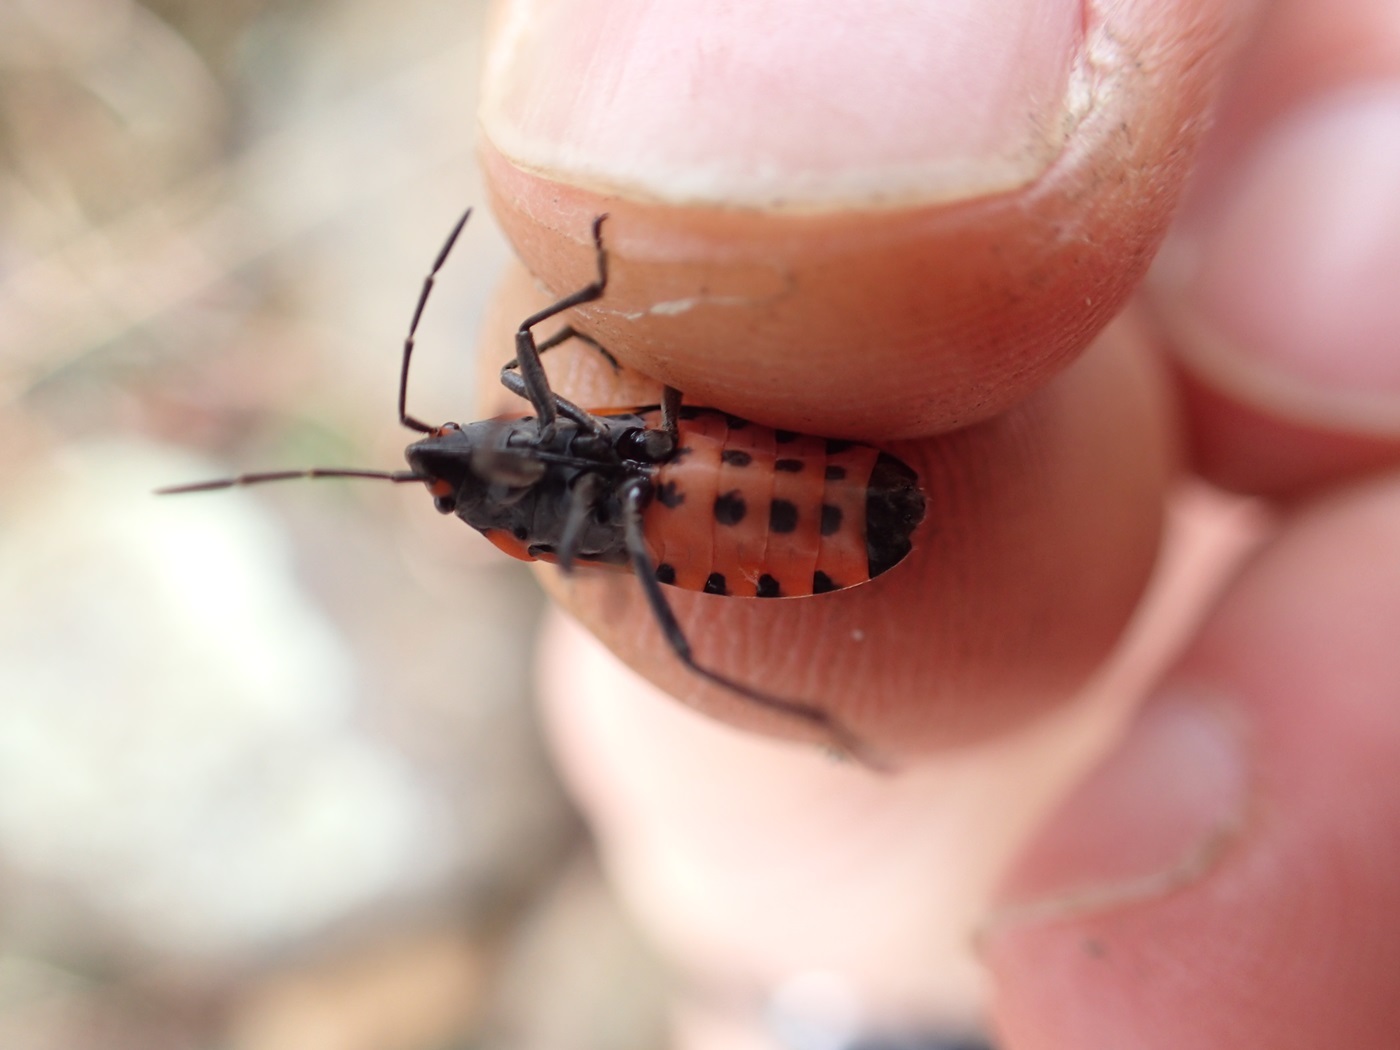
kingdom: Animalia
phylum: Arthropoda
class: Insecta
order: Hemiptera
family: Lygaeidae
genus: Lygaeus
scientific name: Lygaeus turcicus
